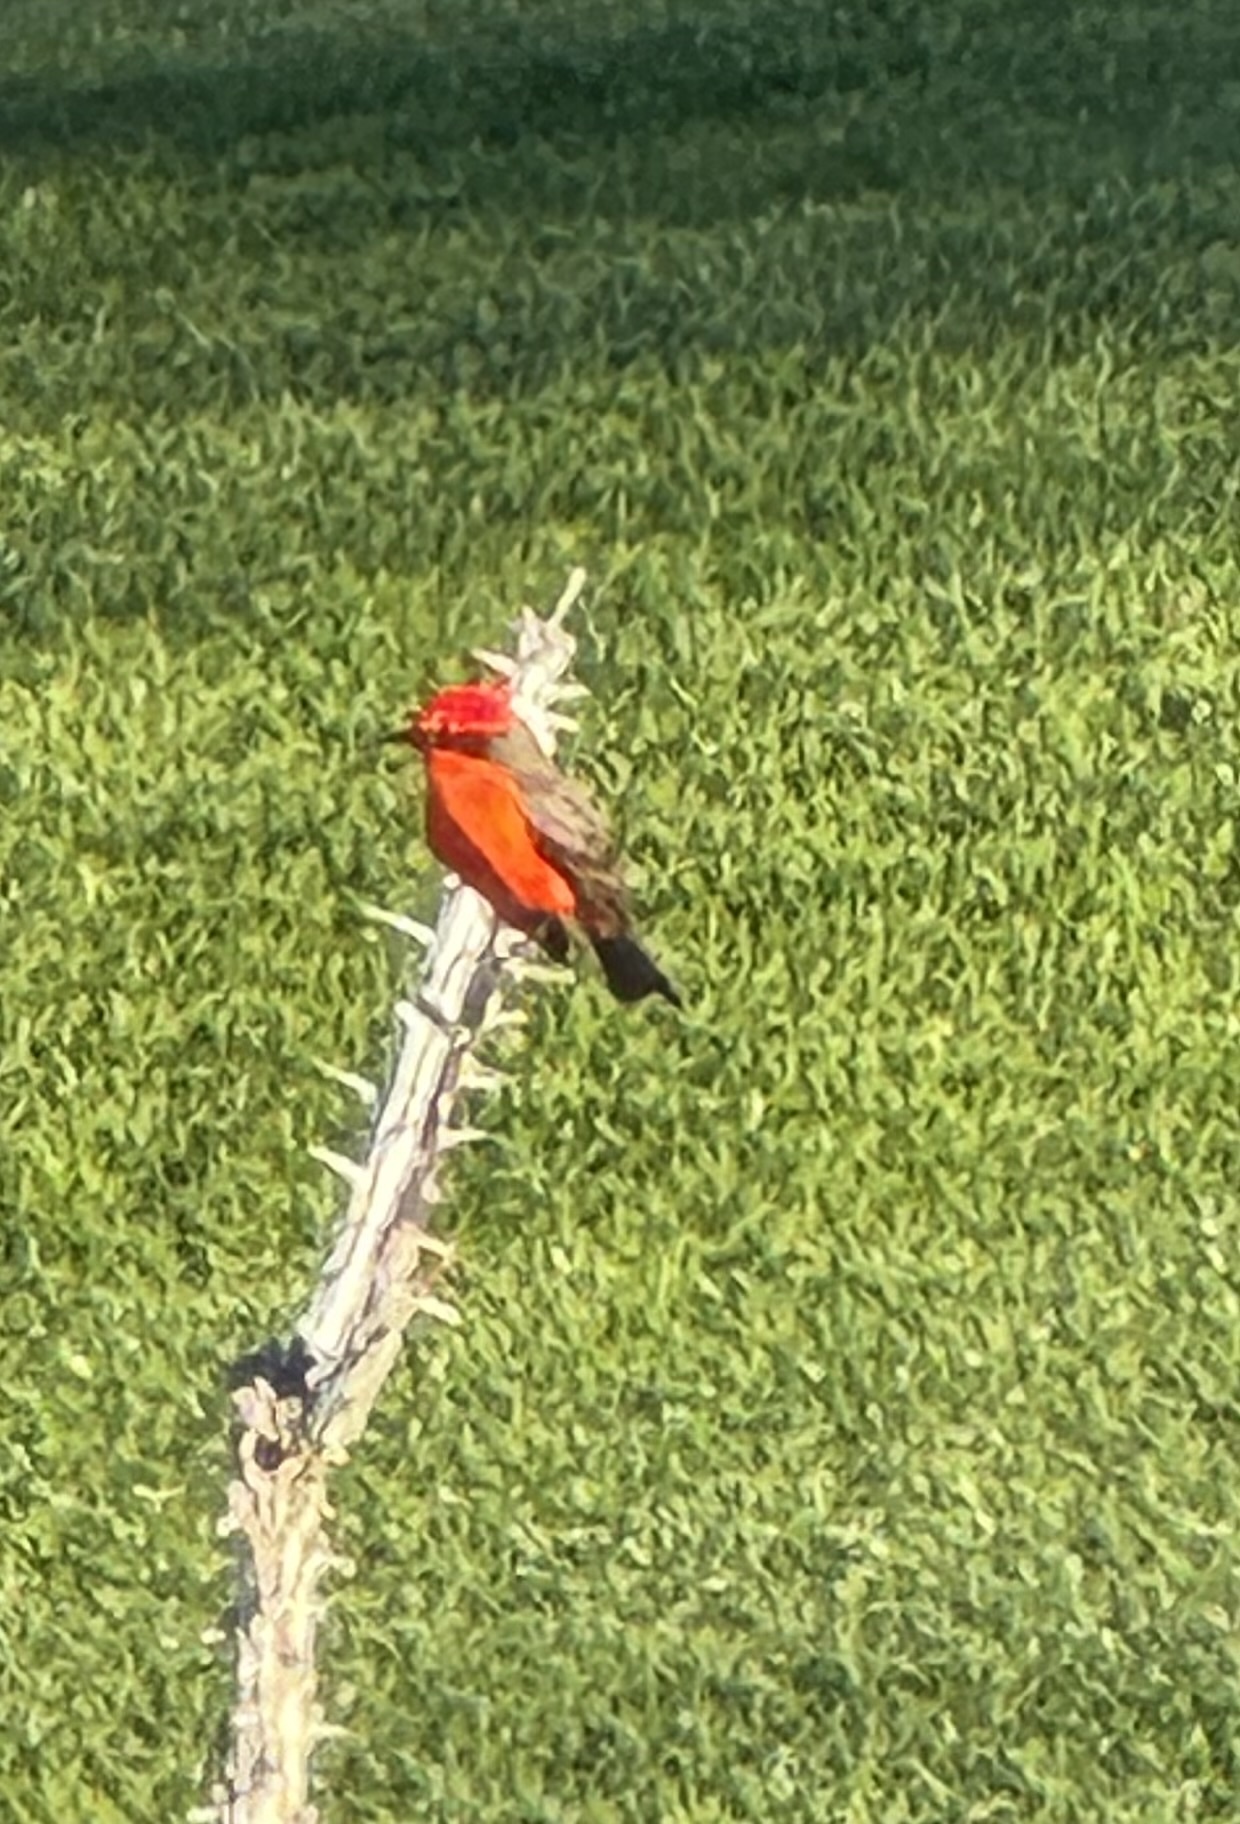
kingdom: Animalia
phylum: Chordata
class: Aves
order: Passeriformes
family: Tyrannidae
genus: Pyrocephalus
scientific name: Pyrocephalus rubinus
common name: Vermilion flycatcher
